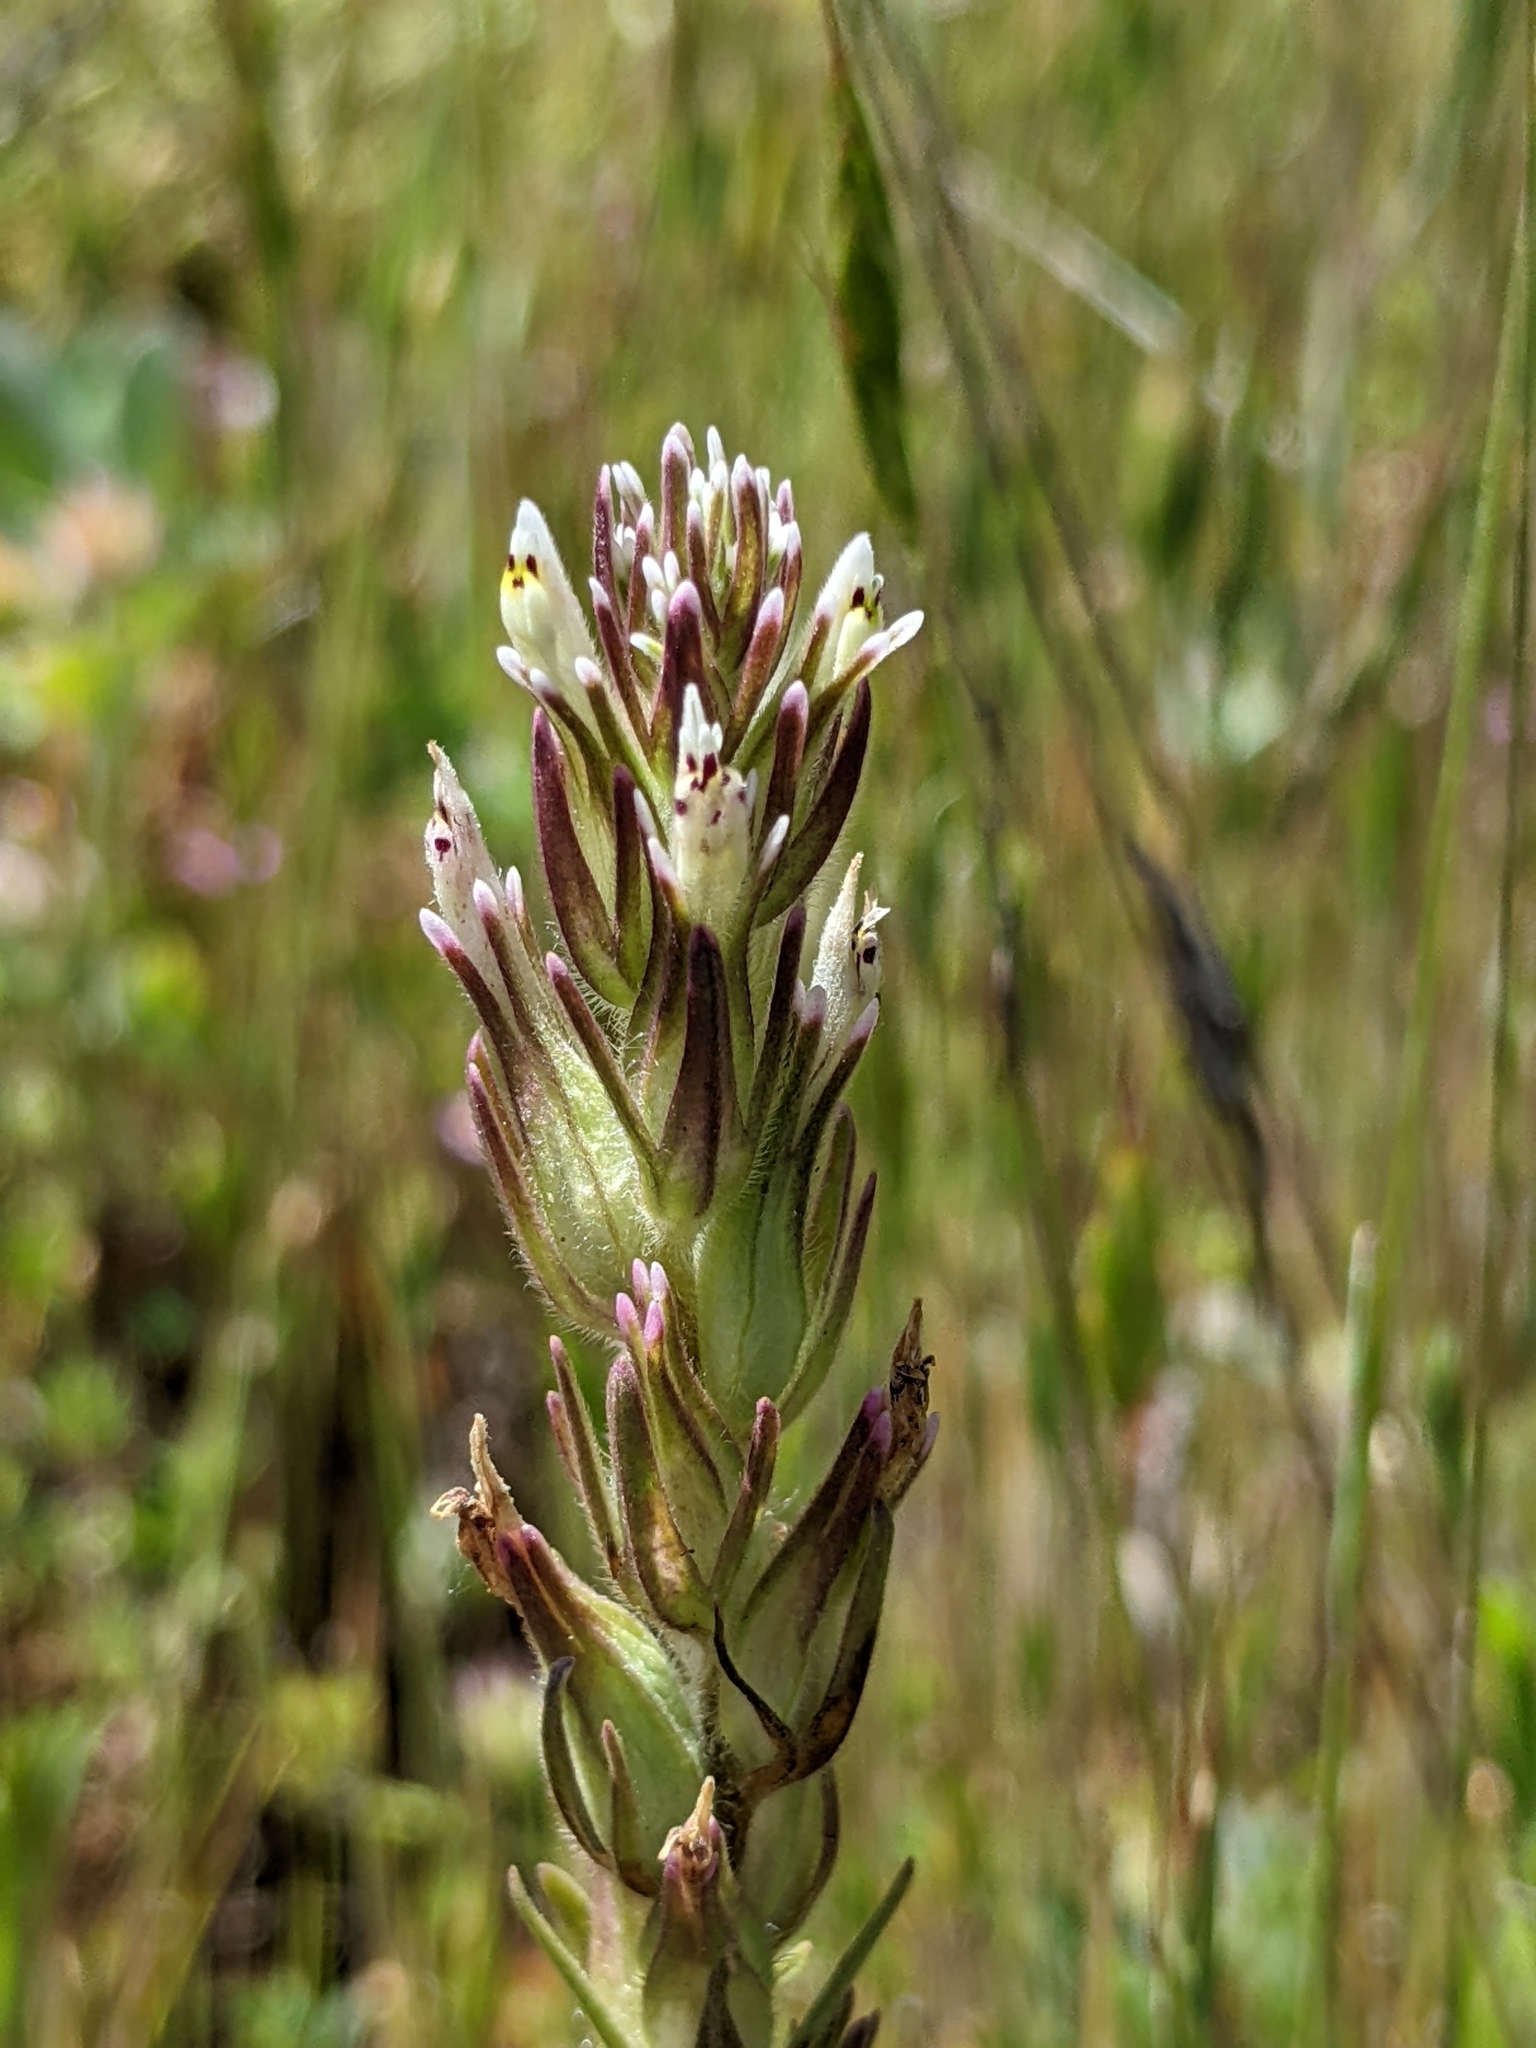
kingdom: Plantae
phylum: Tracheophyta
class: Magnoliopsida
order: Lamiales
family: Orobanchaceae
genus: Castilleja
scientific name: Castilleja attenuata
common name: Valley tassels
